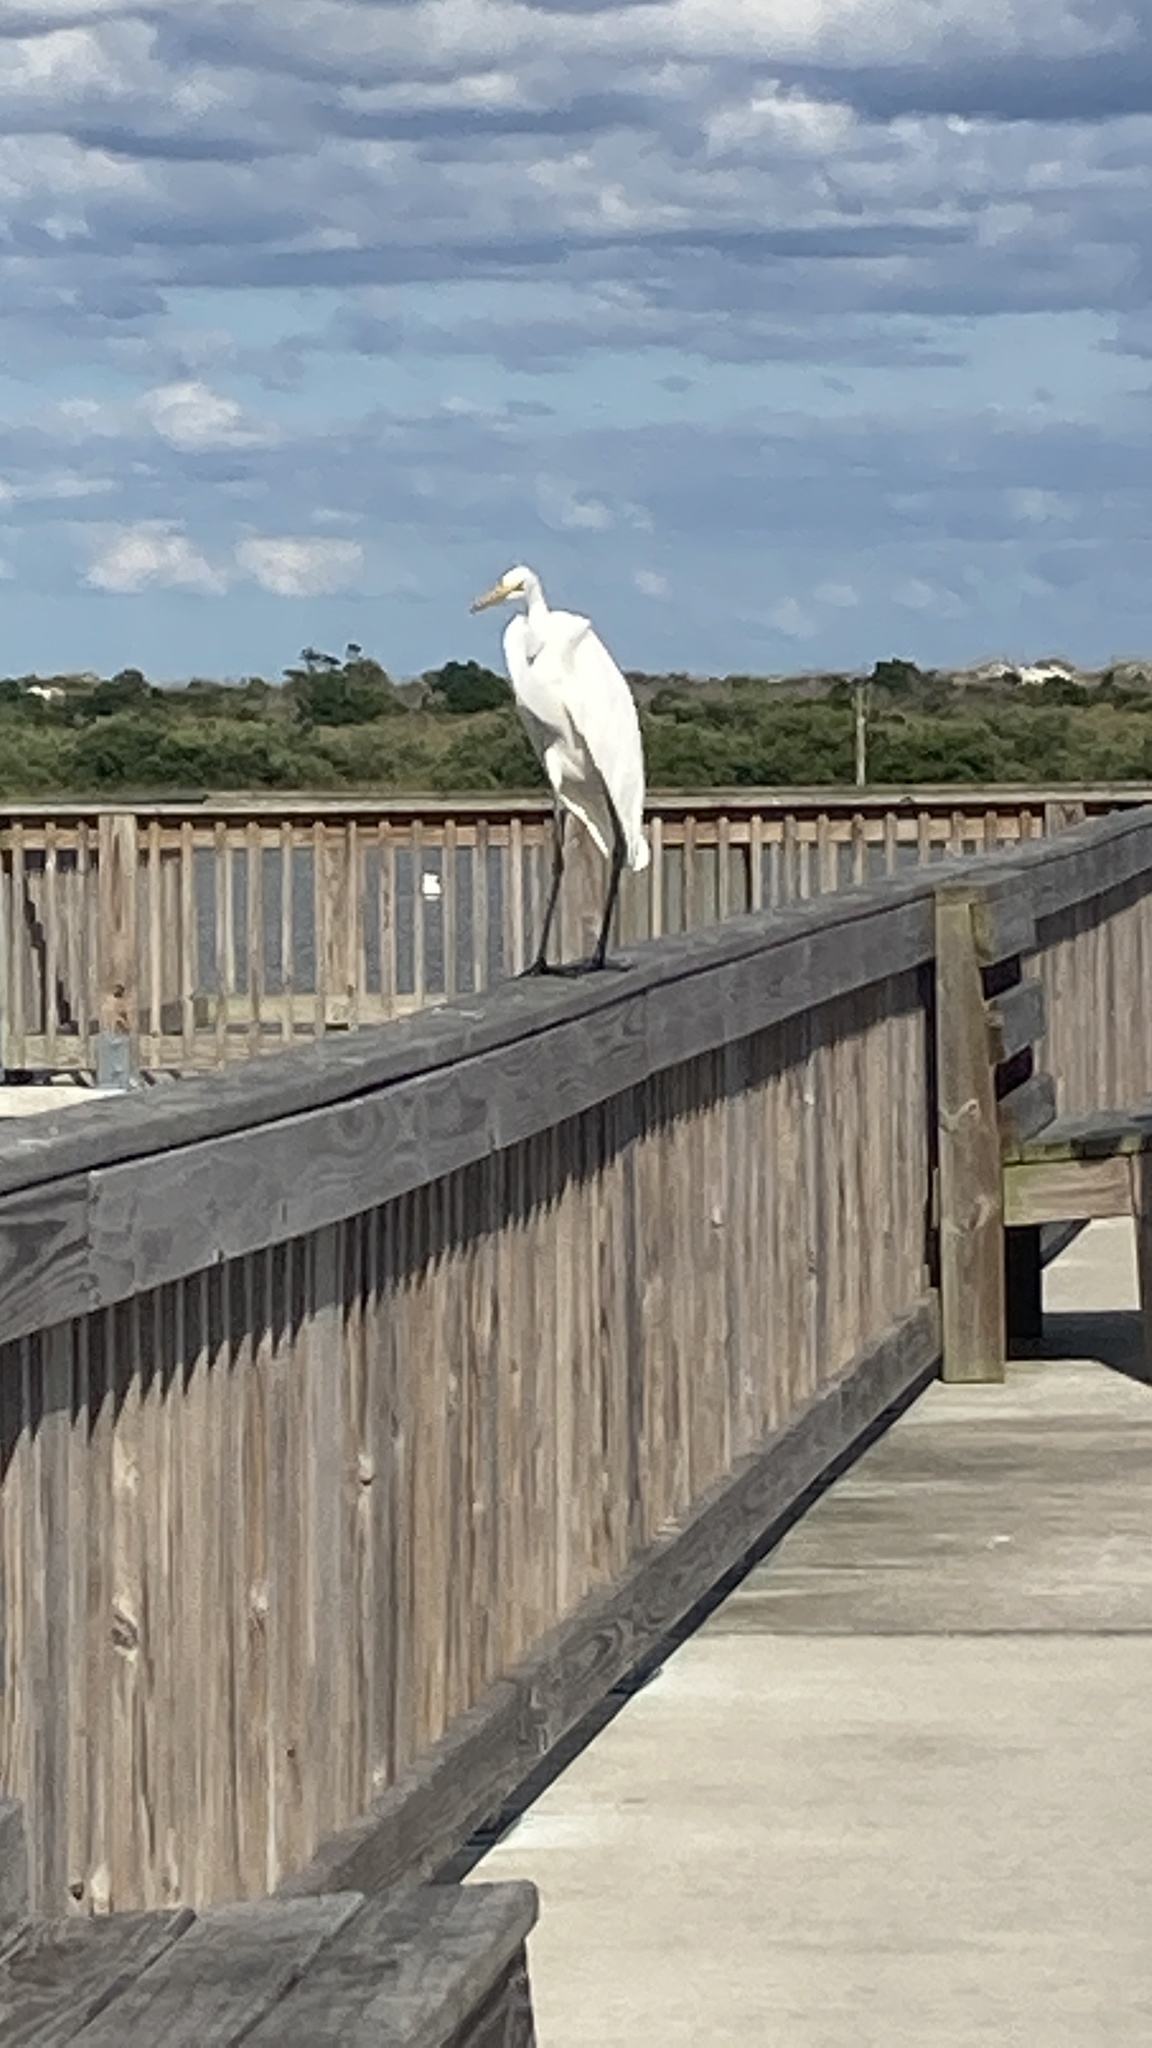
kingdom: Animalia
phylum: Chordata
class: Aves
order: Pelecaniformes
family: Ardeidae
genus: Ardea
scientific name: Ardea alba
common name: Great egret
